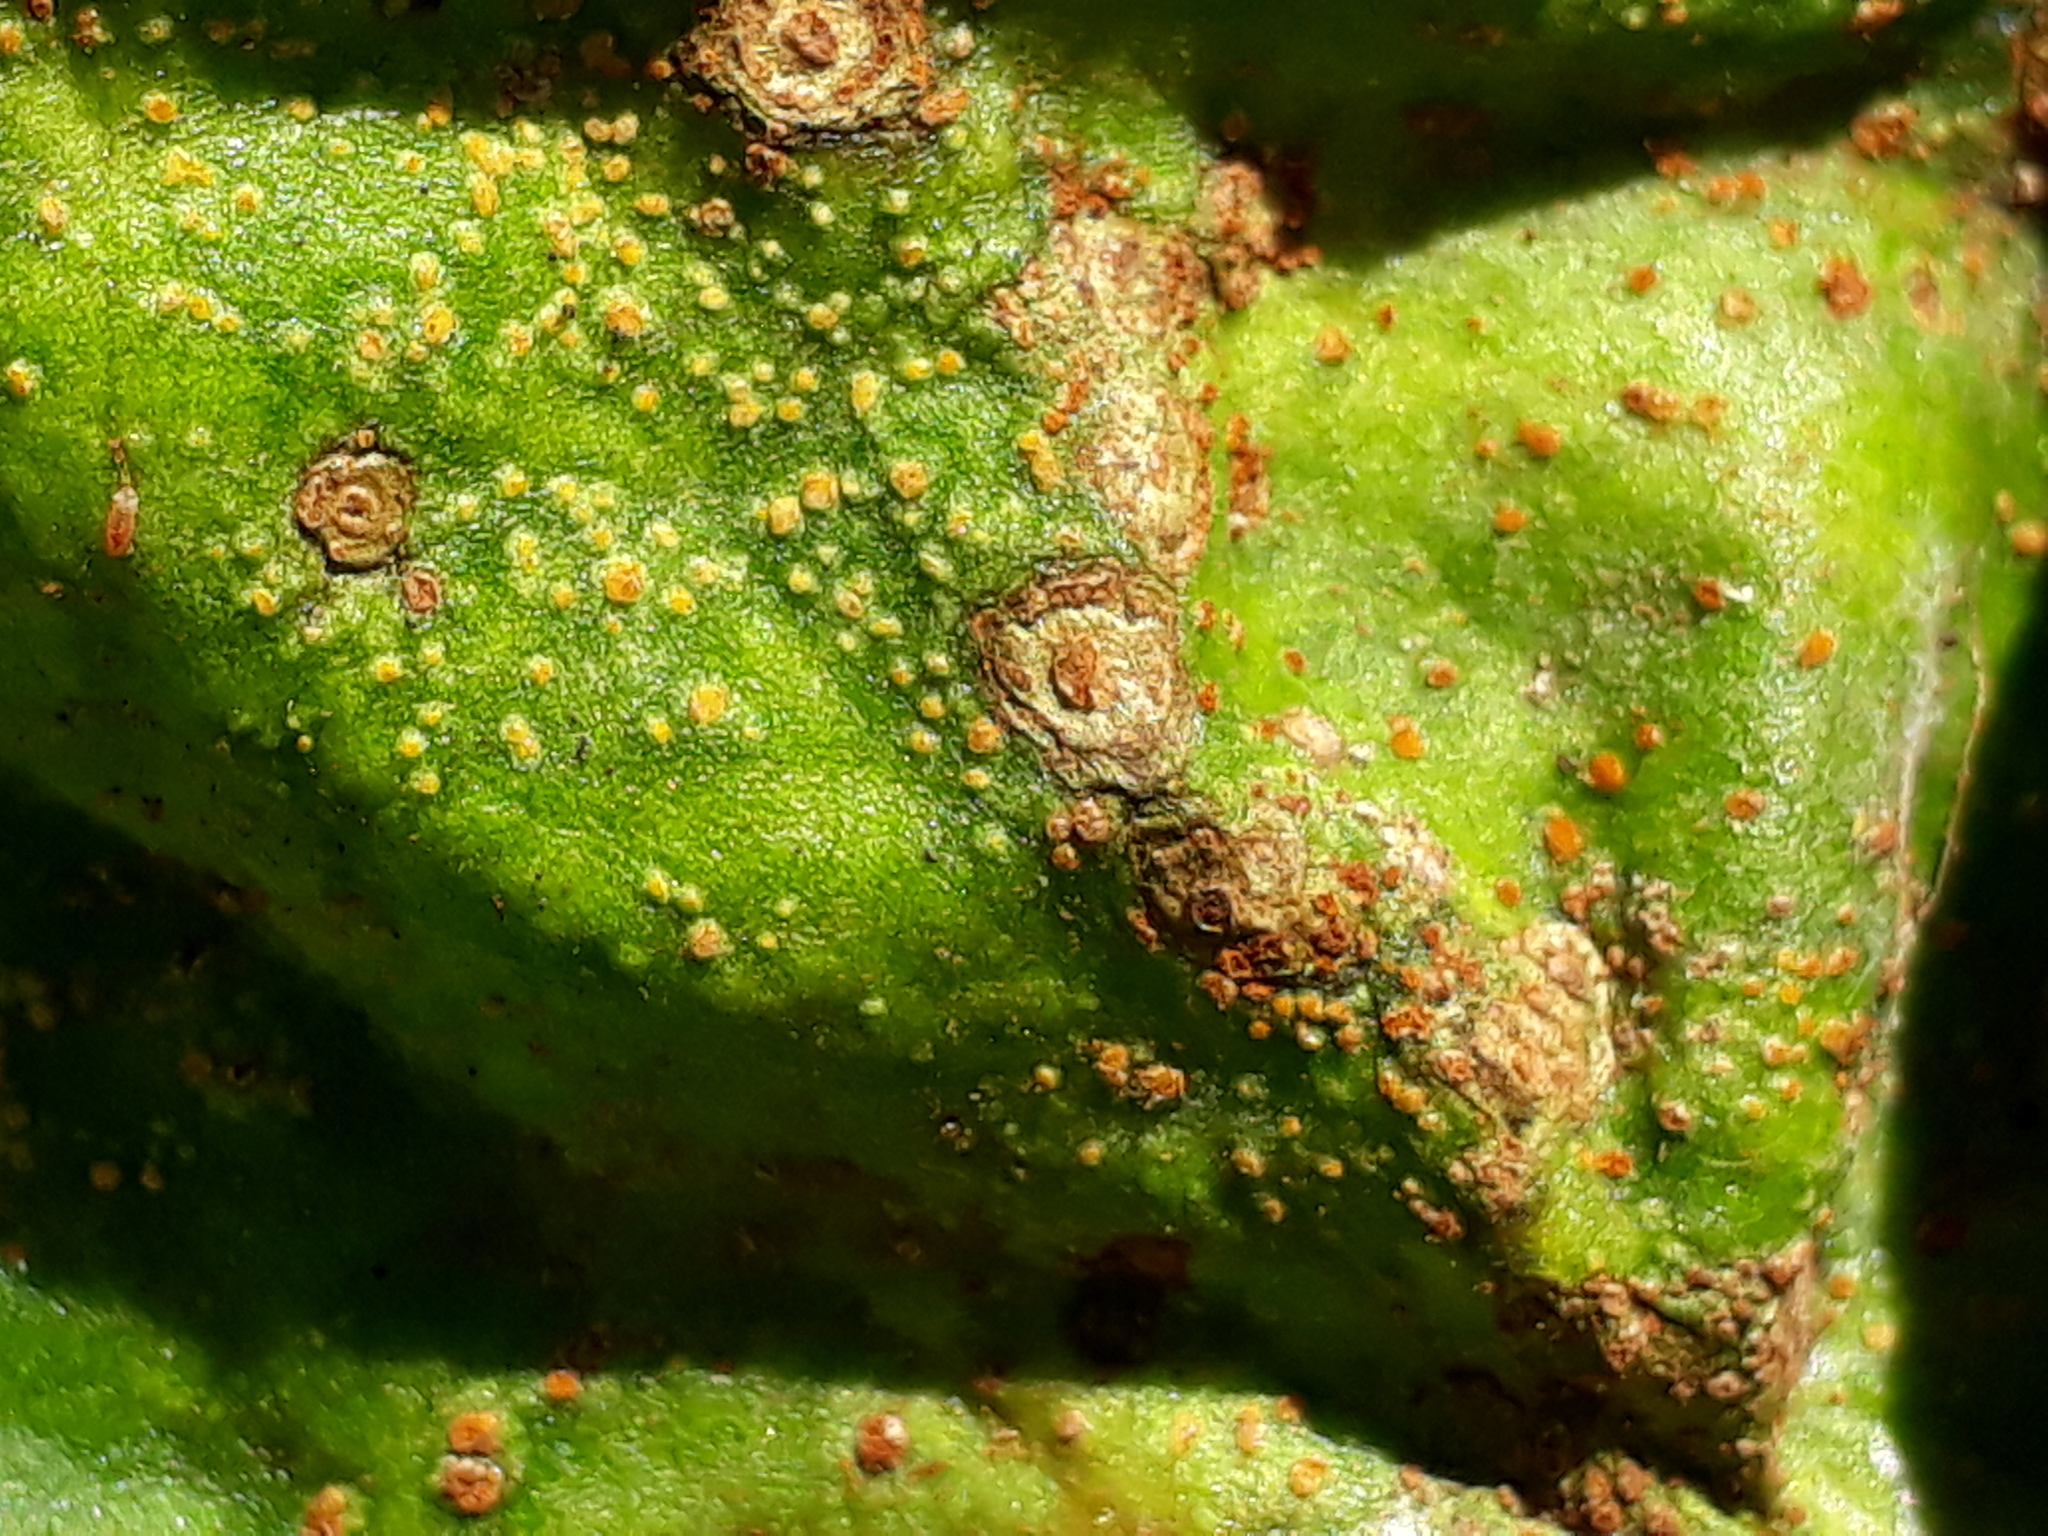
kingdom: Fungi
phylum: Basidiomycota
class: Pucciniomycetes
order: Pucciniales
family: Pucciniaceae
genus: Uromyces
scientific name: Uromyces betae
